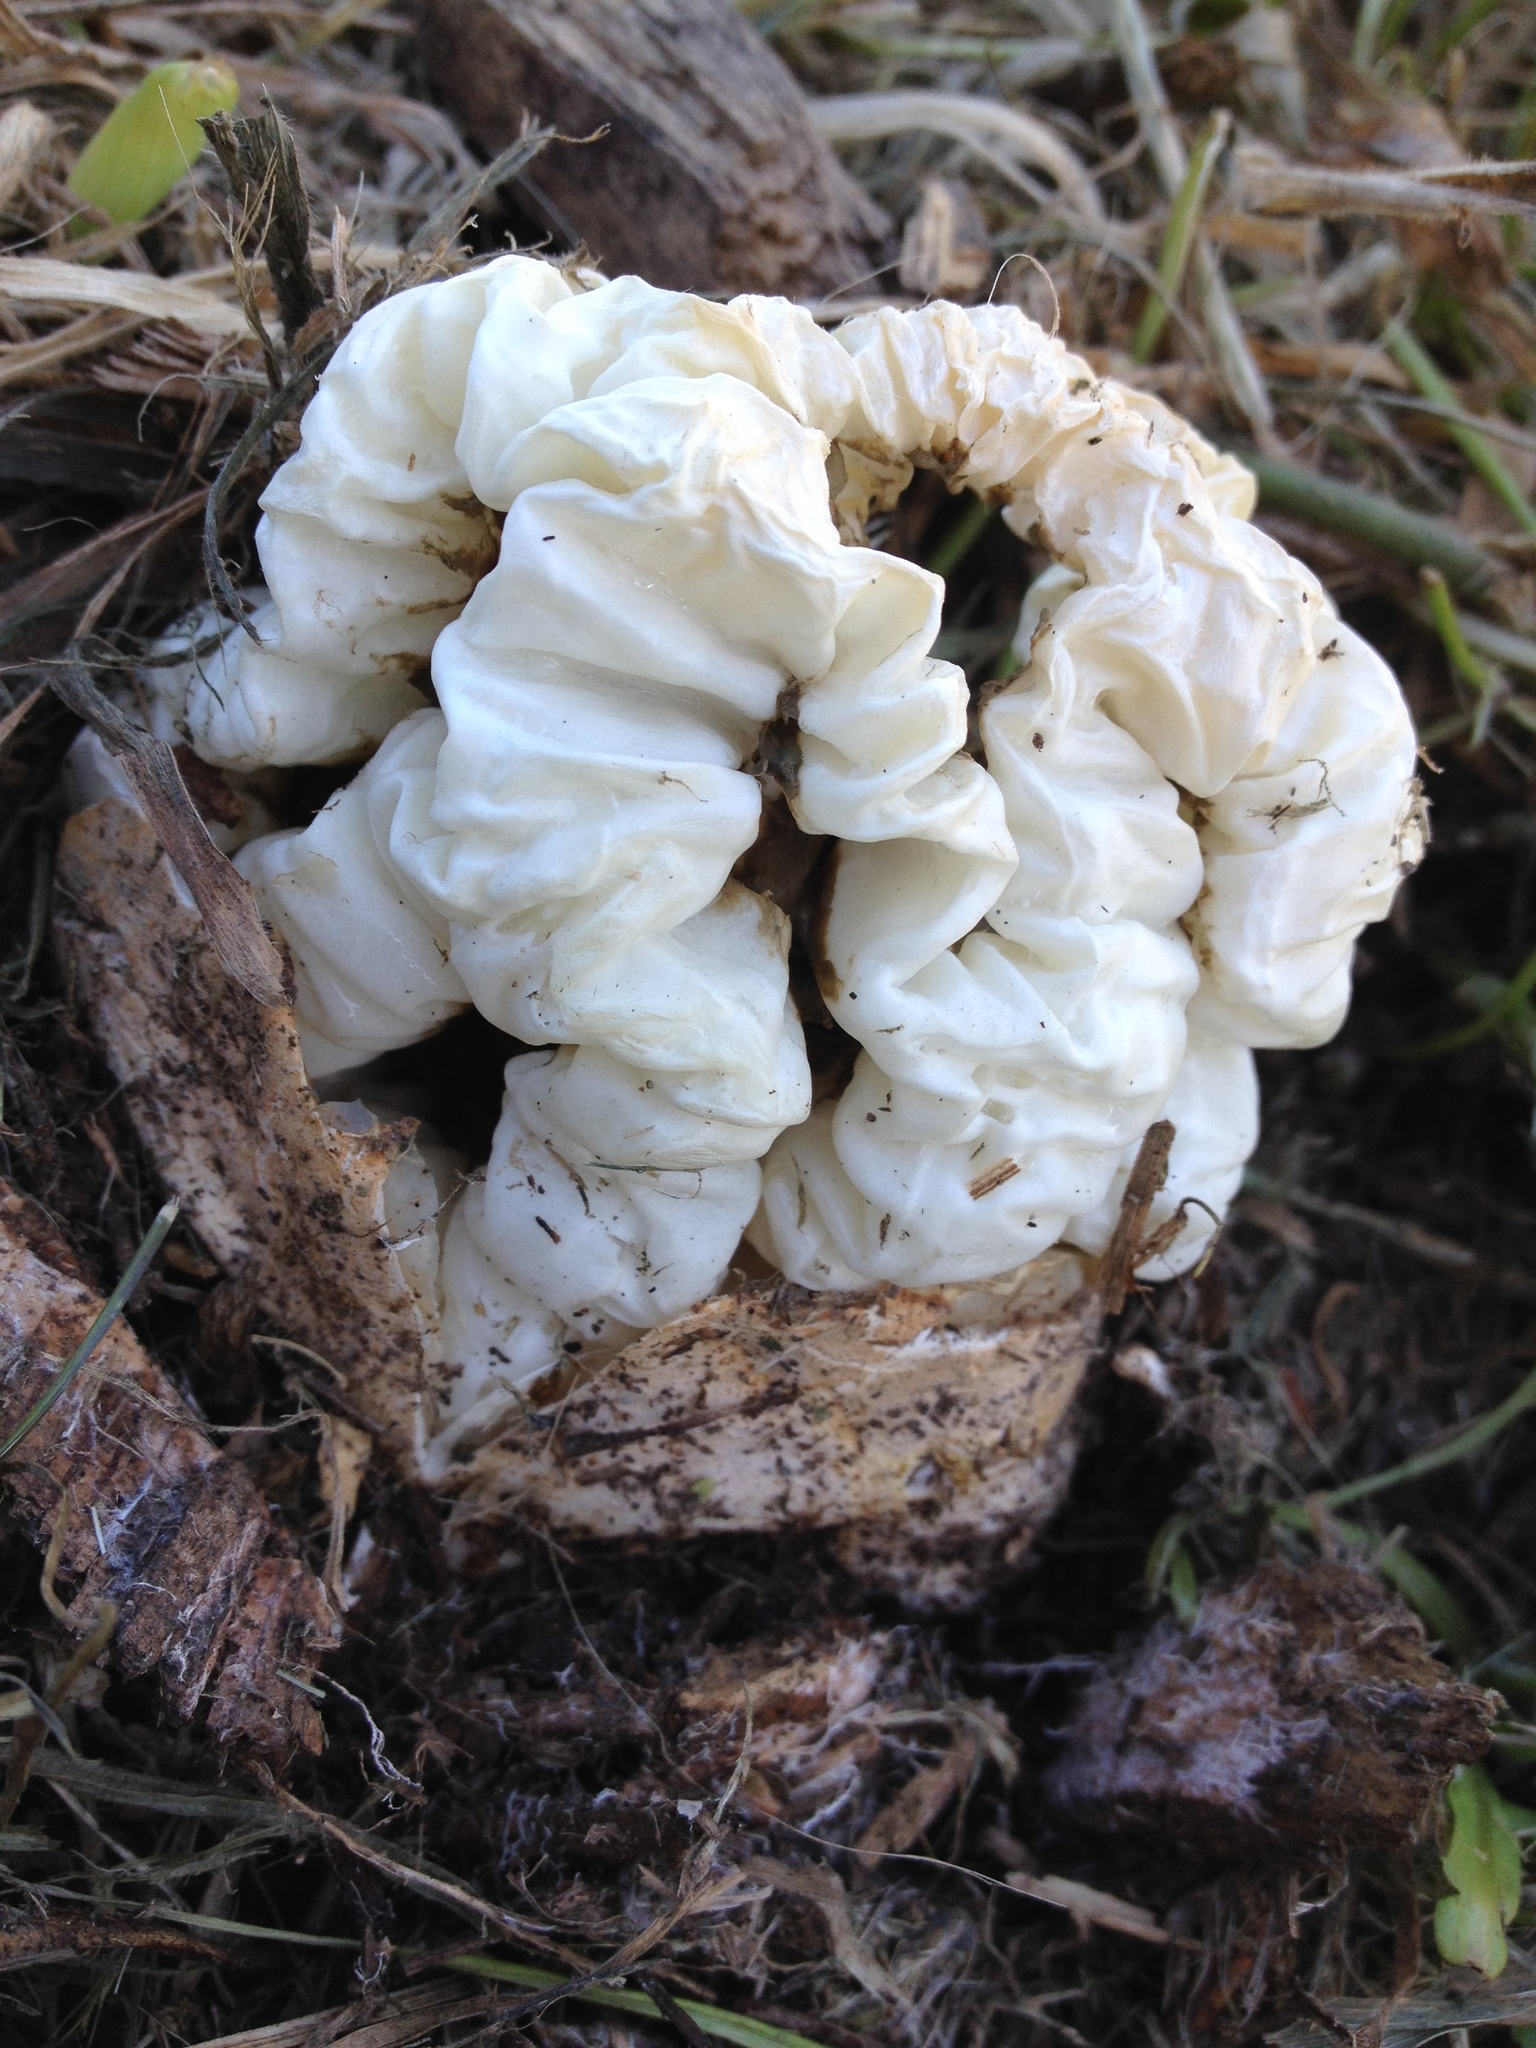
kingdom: Fungi
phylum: Basidiomycota
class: Agaricomycetes
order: Phallales
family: Phallaceae
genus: Ileodictyon
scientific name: Ileodictyon cibarium
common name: Basket fungus
